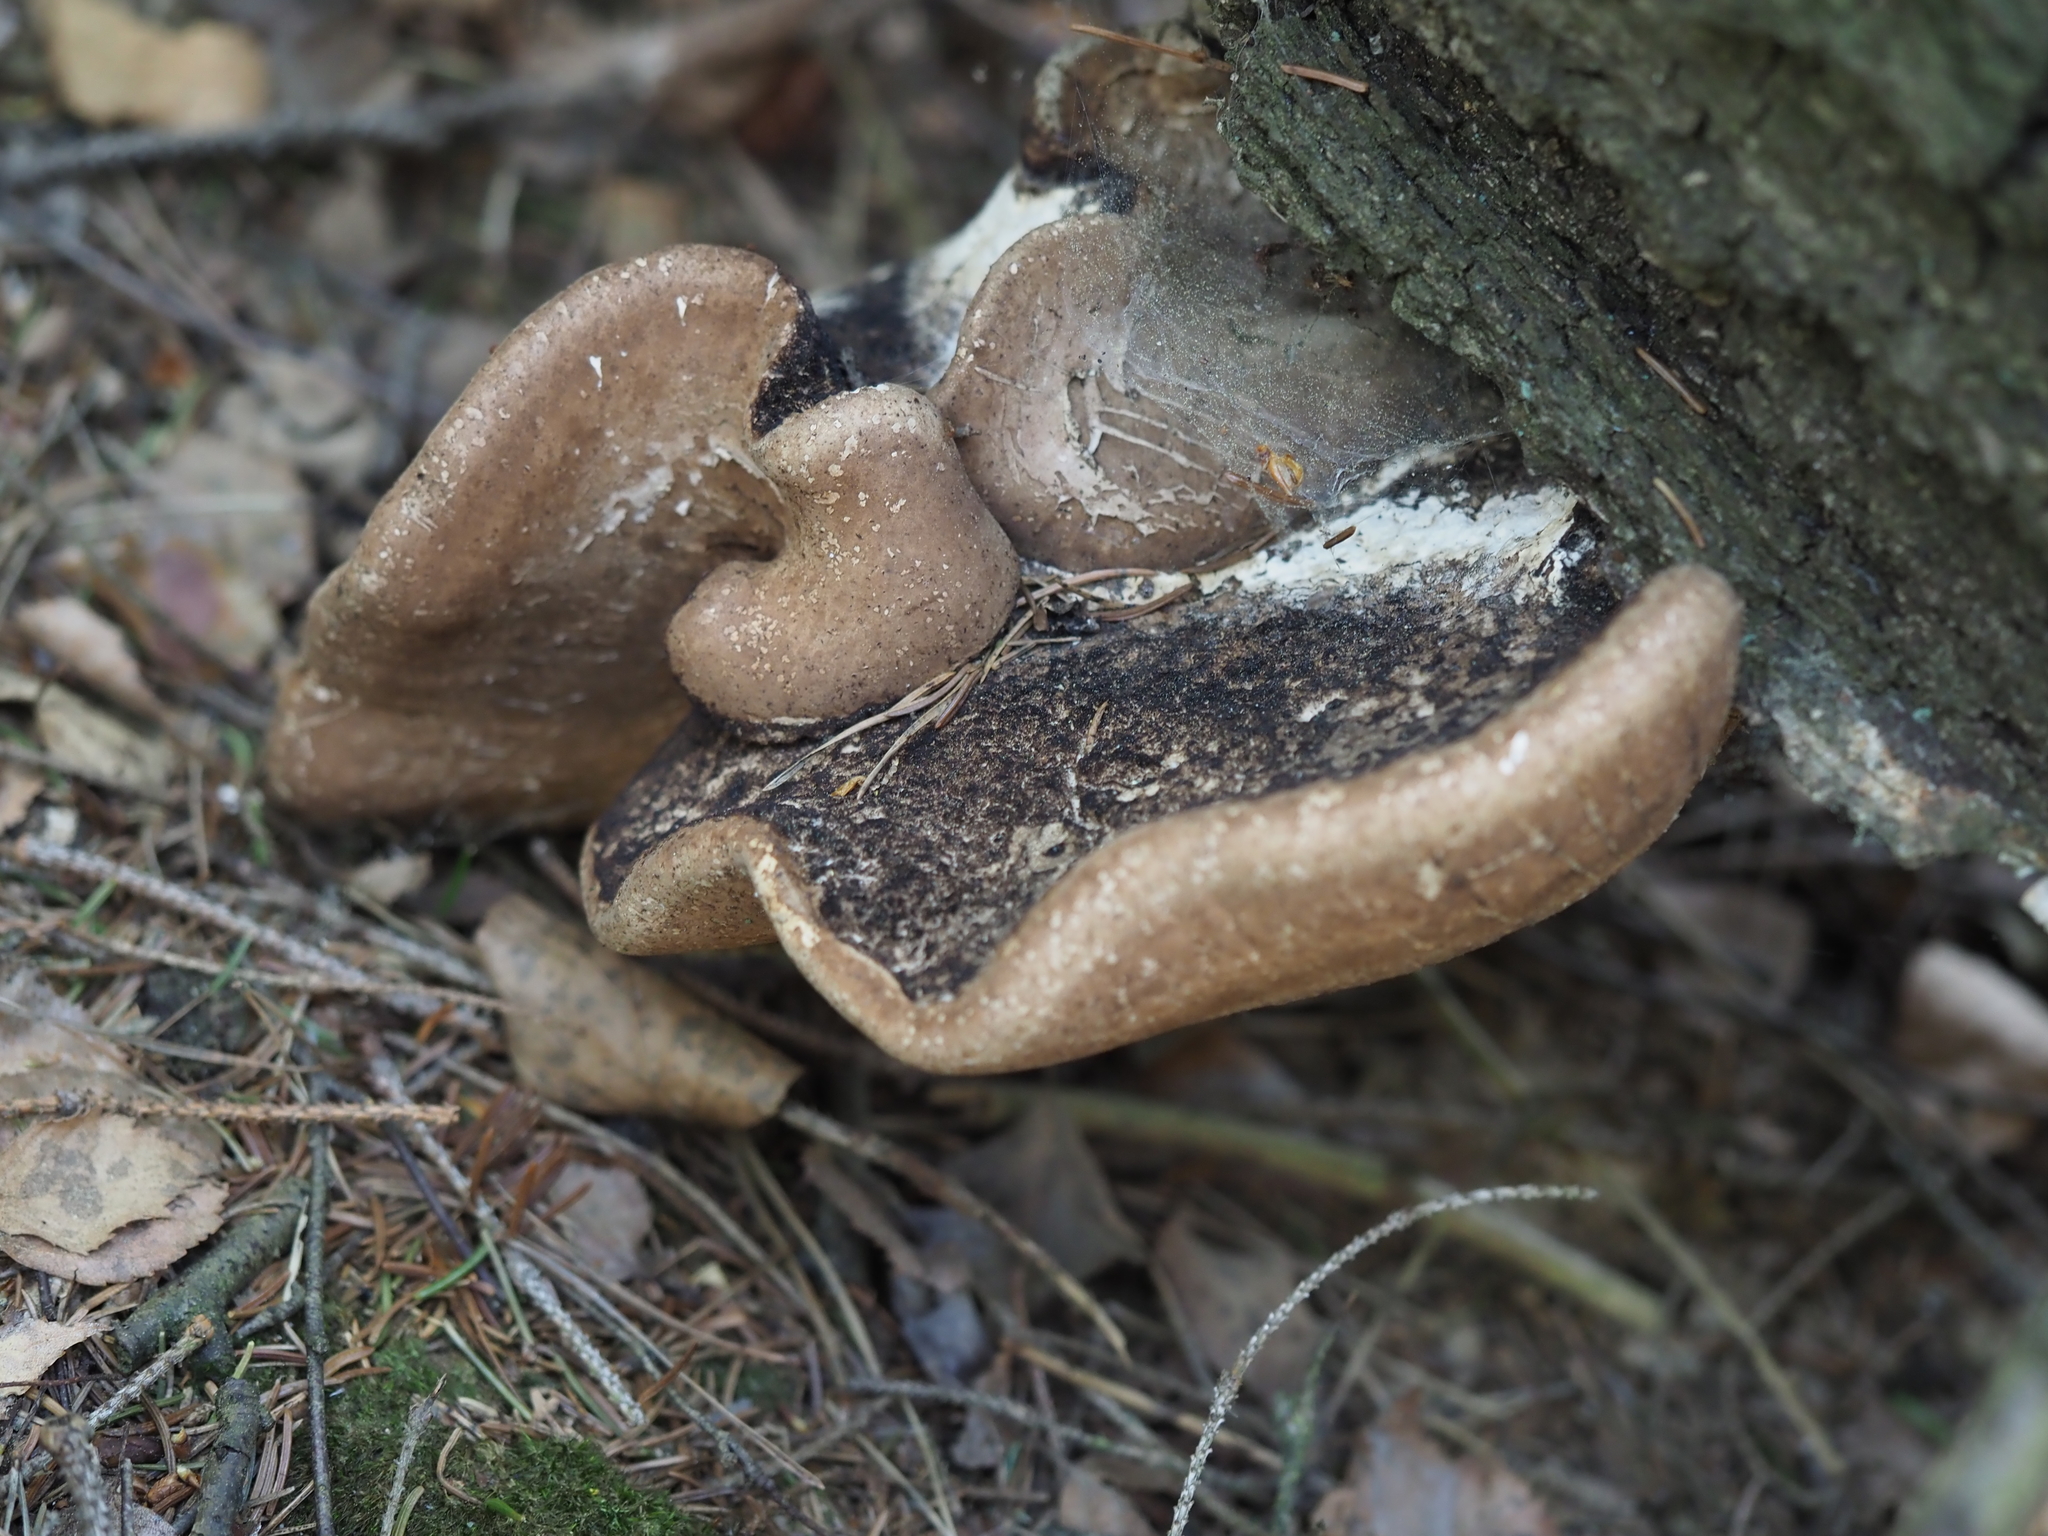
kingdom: Fungi
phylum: Basidiomycota
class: Agaricomycetes
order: Polyporales
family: Fomitopsidaceae
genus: Fomitopsis
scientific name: Fomitopsis betulina
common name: Birch polypore
